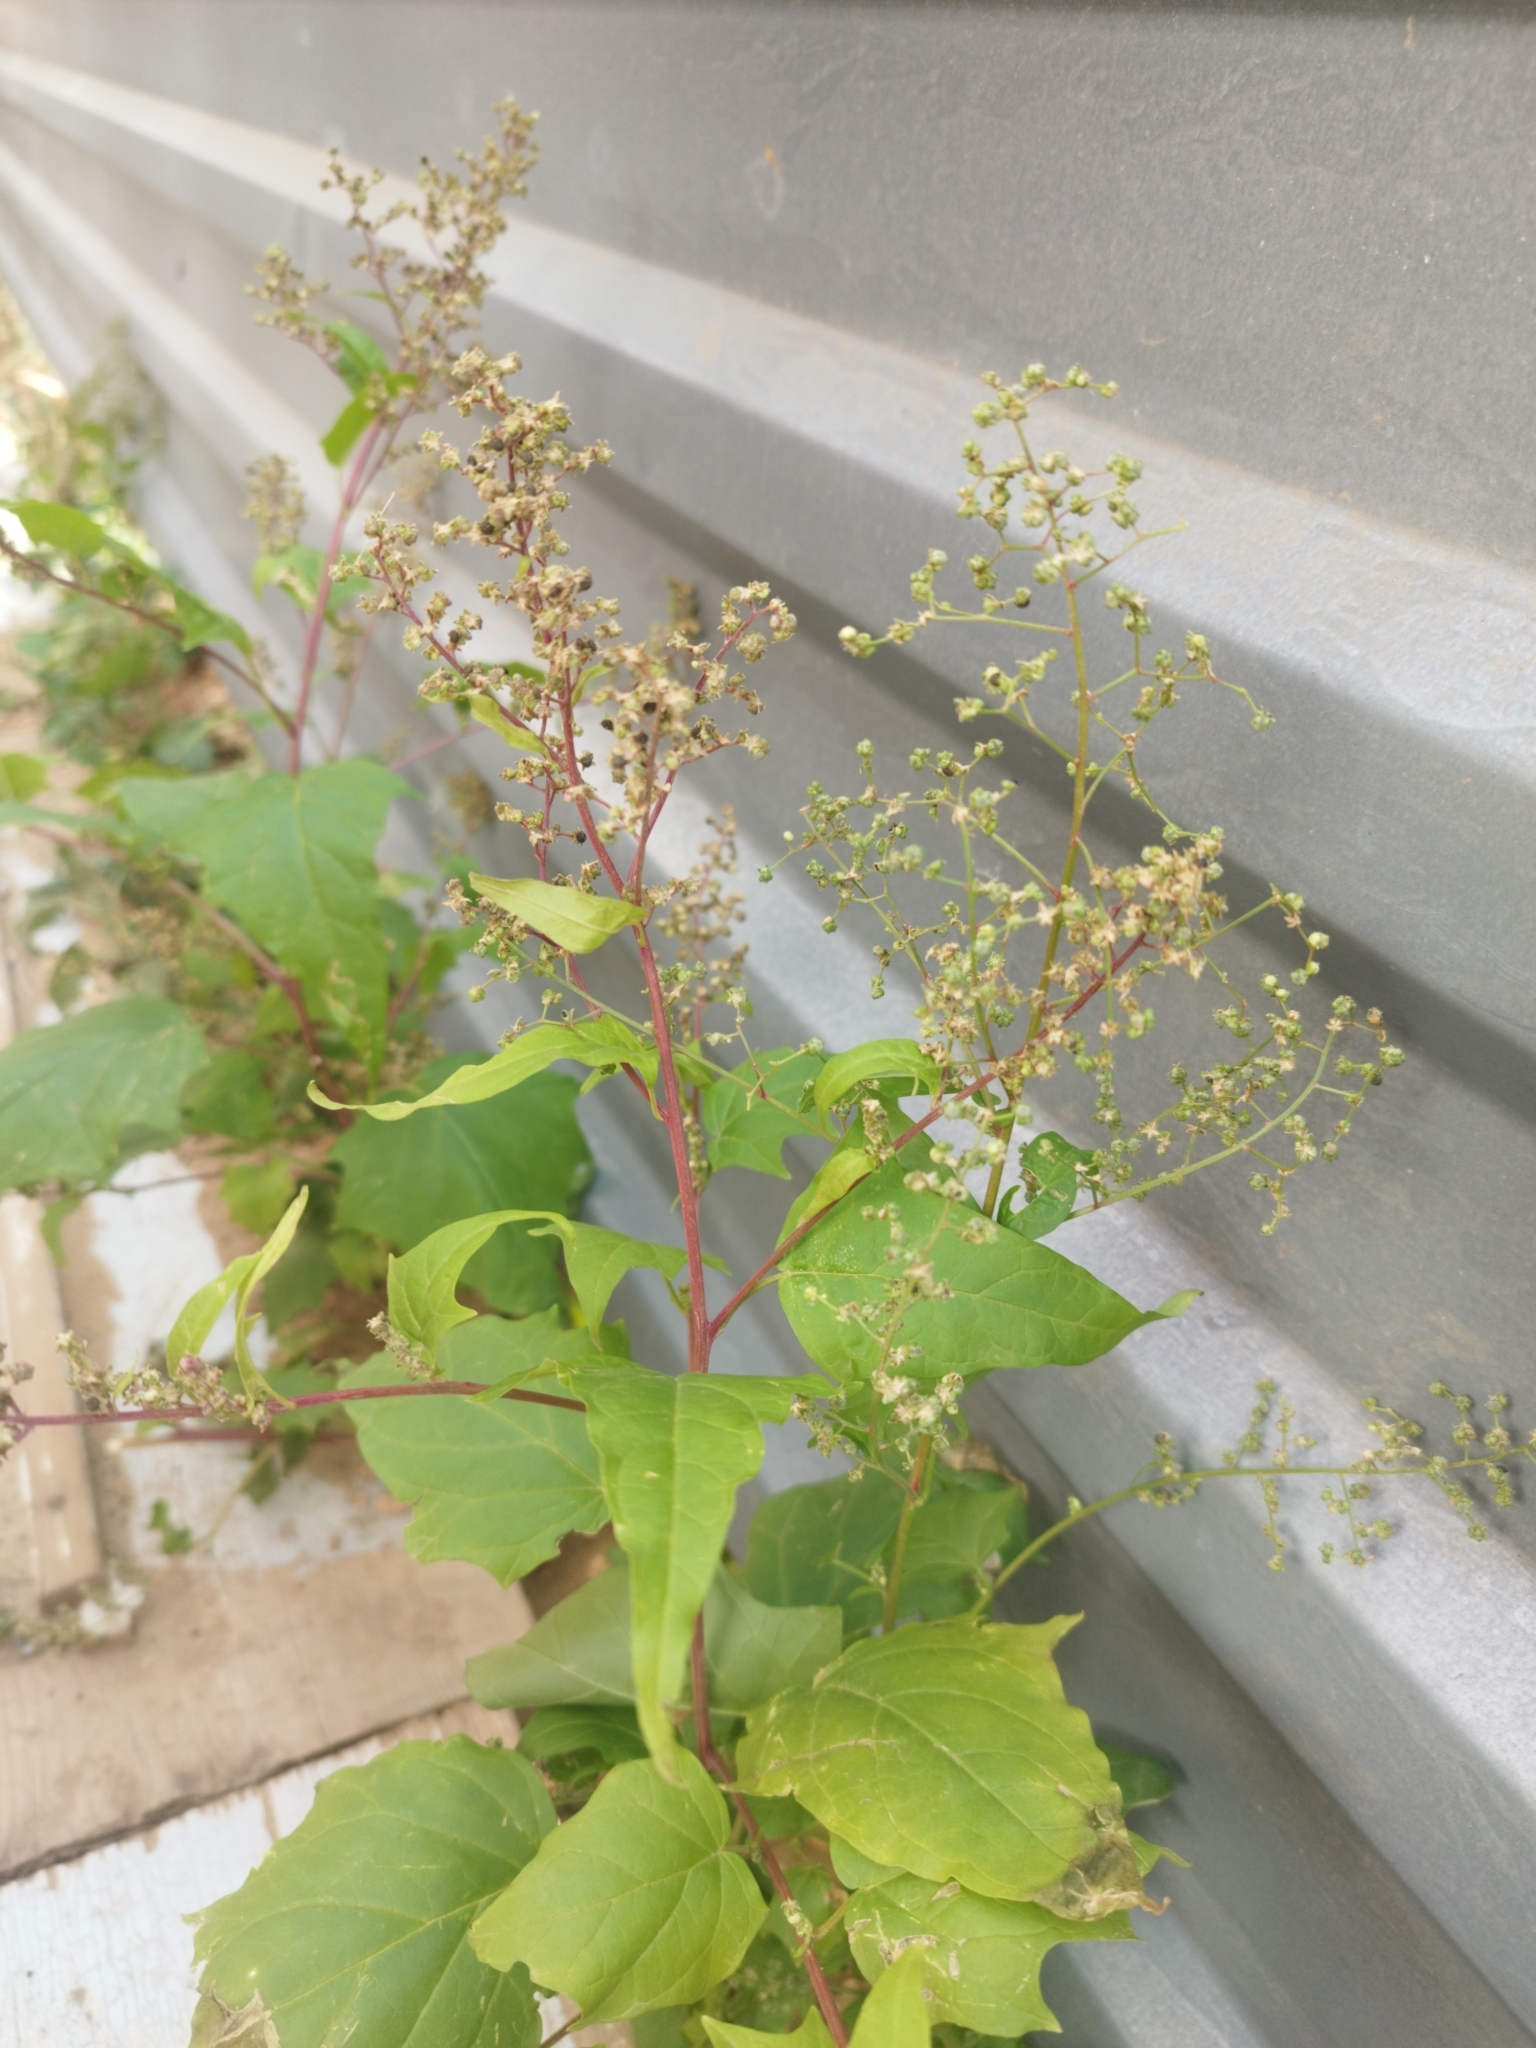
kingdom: Plantae
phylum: Tracheophyta
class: Magnoliopsida
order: Caryophyllales
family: Amaranthaceae
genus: Chenopodiastrum
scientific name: Chenopodiastrum hybridum
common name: Mapleleaf goosefoot
